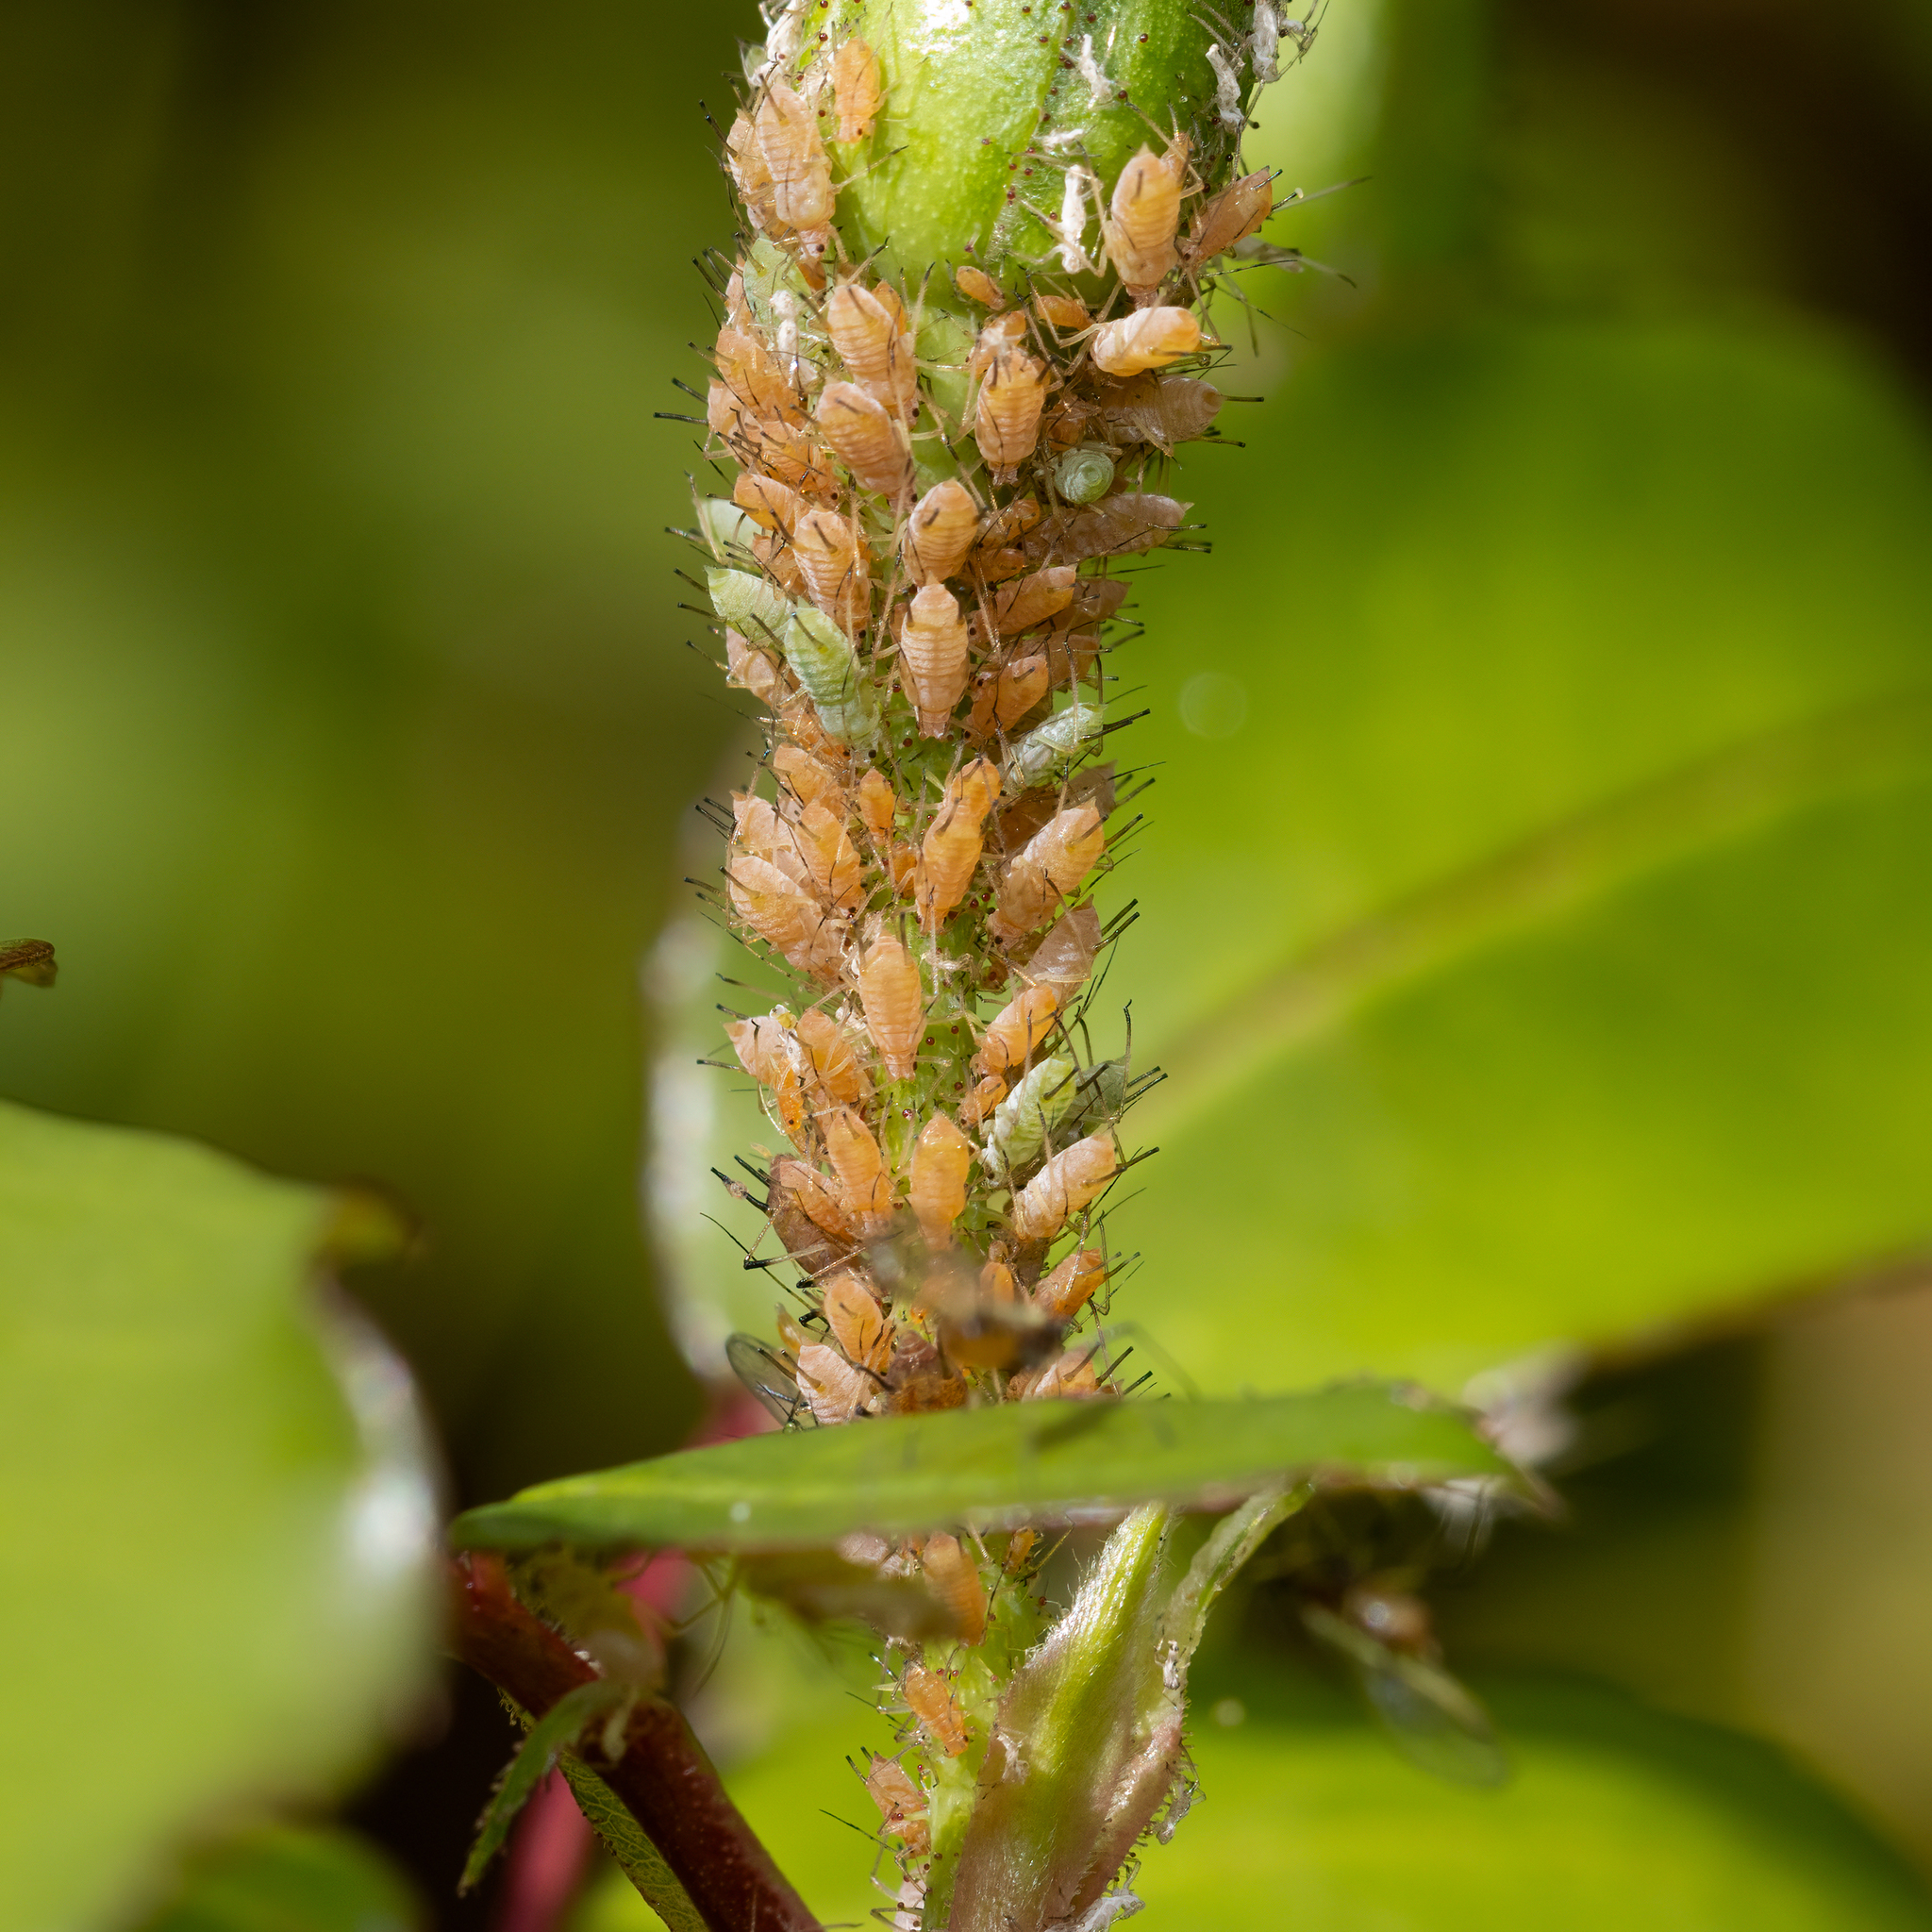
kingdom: Animalia
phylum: Arthropoda
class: Insecta
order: Hemiptera
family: Aphididae
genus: Macrosiphum
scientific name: Macrosiphum rosae
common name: Rose aphid
